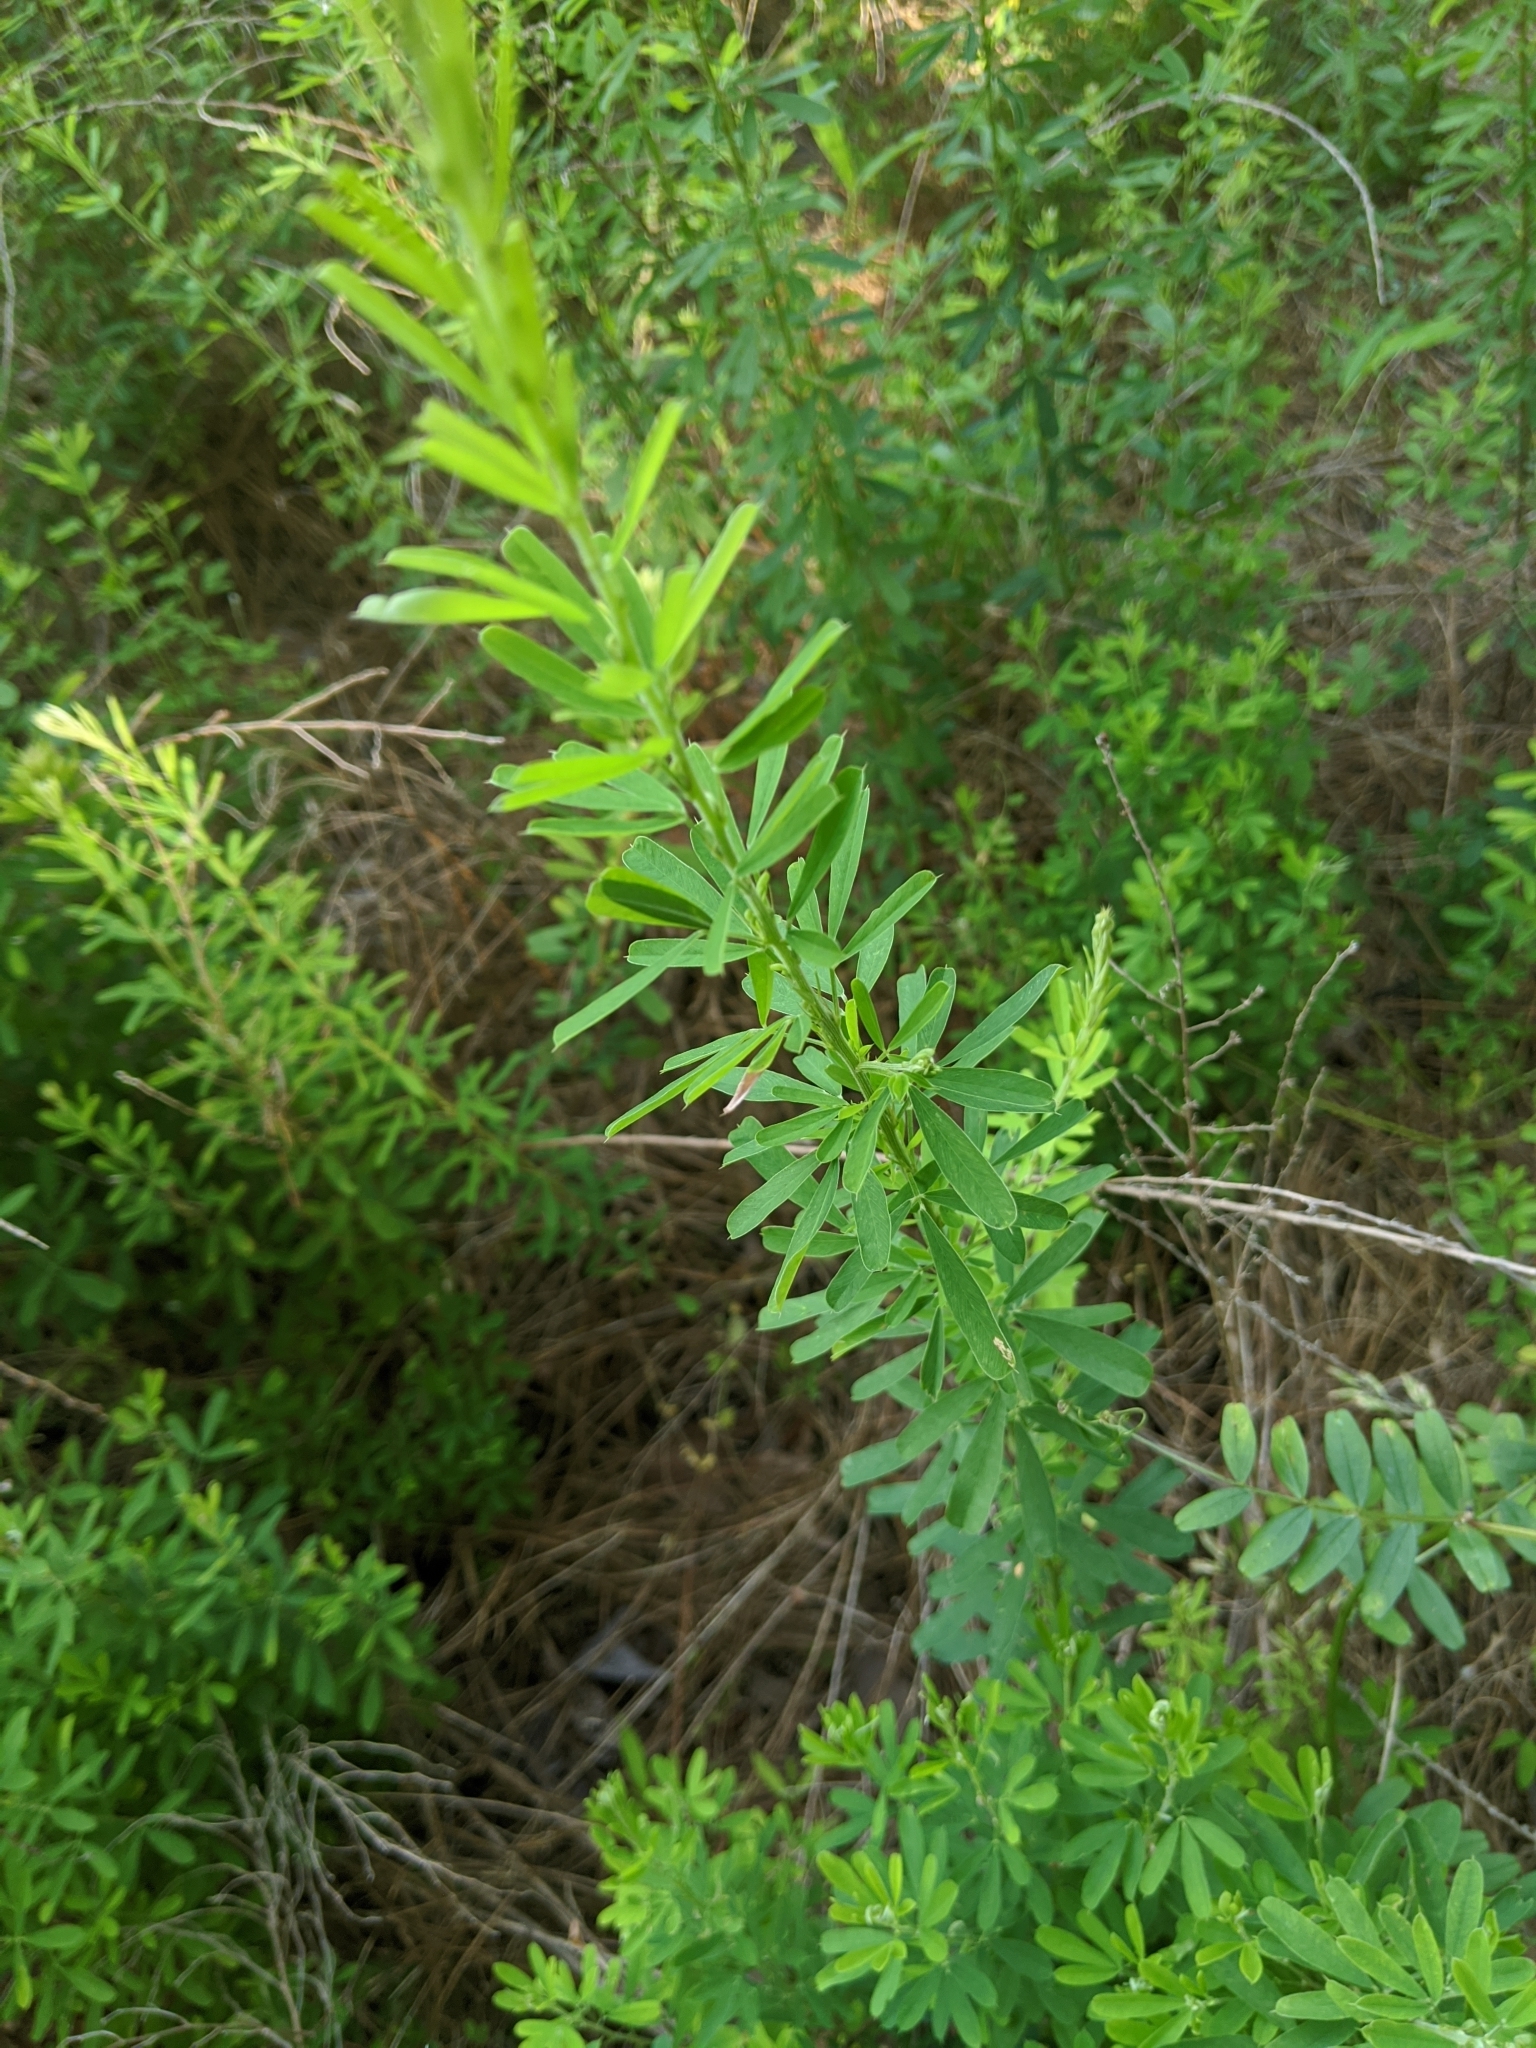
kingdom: Plantae
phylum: Tracheophyta
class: Magnoliopsida
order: Fabales
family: Fabaceae
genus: Lespedeza
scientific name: Lespedeza cuneata
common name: Chinese bush-clover
